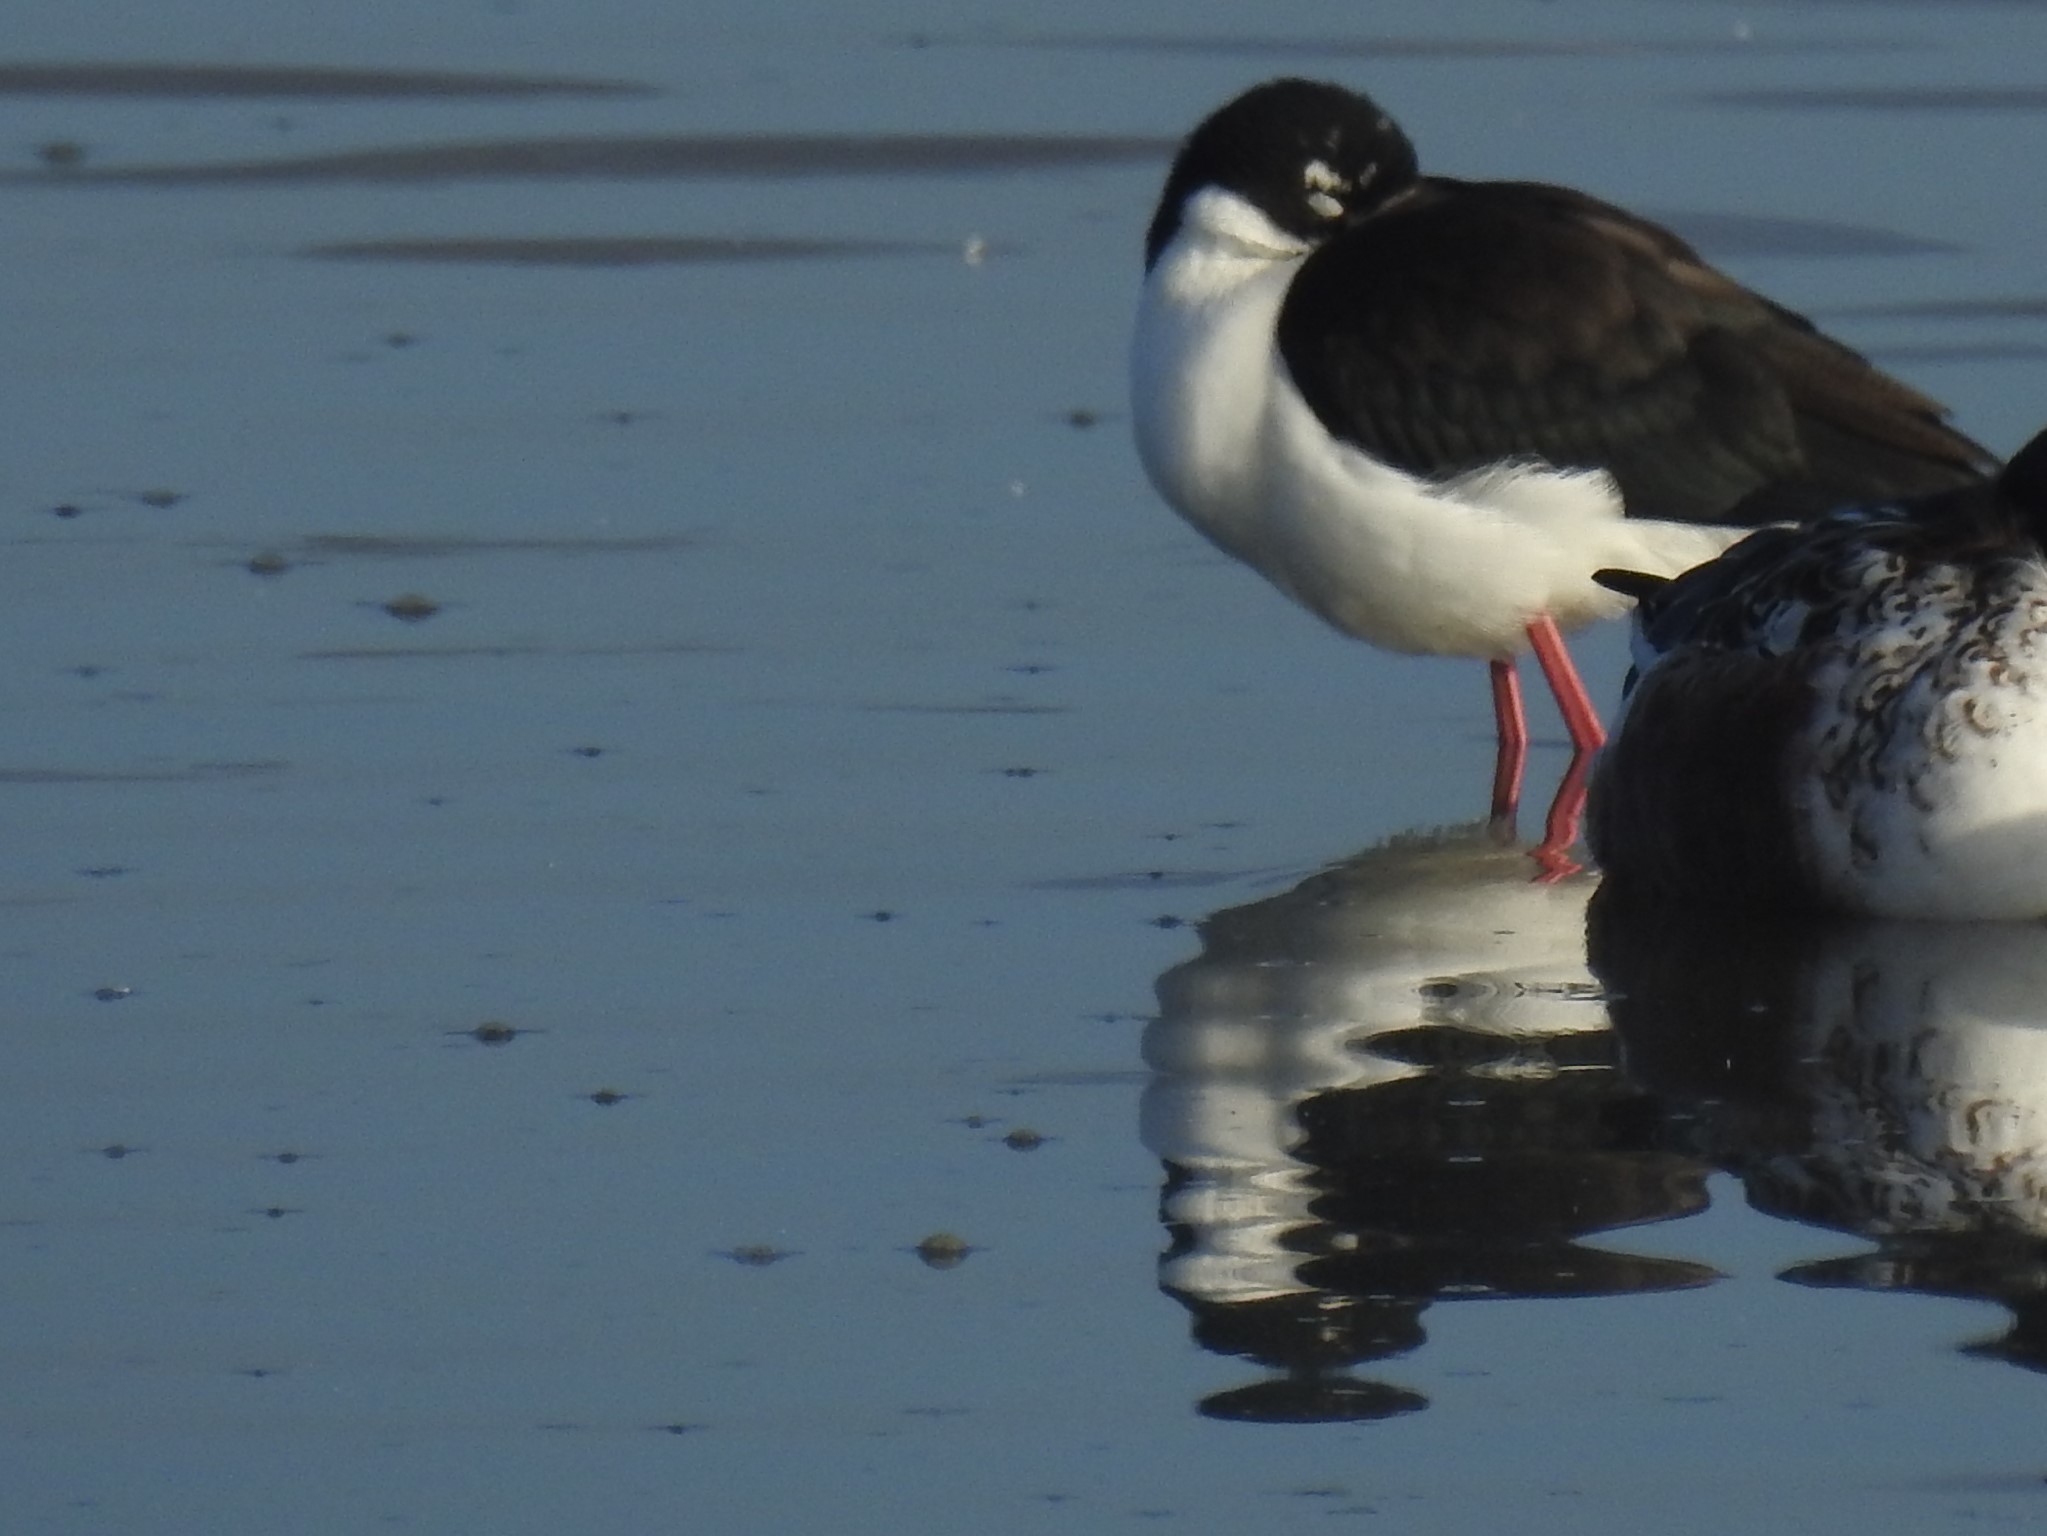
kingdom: Animalia
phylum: Chordata
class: Aves
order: Charadriiformes
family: Recurvirostridae
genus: Himantopus
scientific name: Himantopus mexicanus
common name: Black-necked stilt
